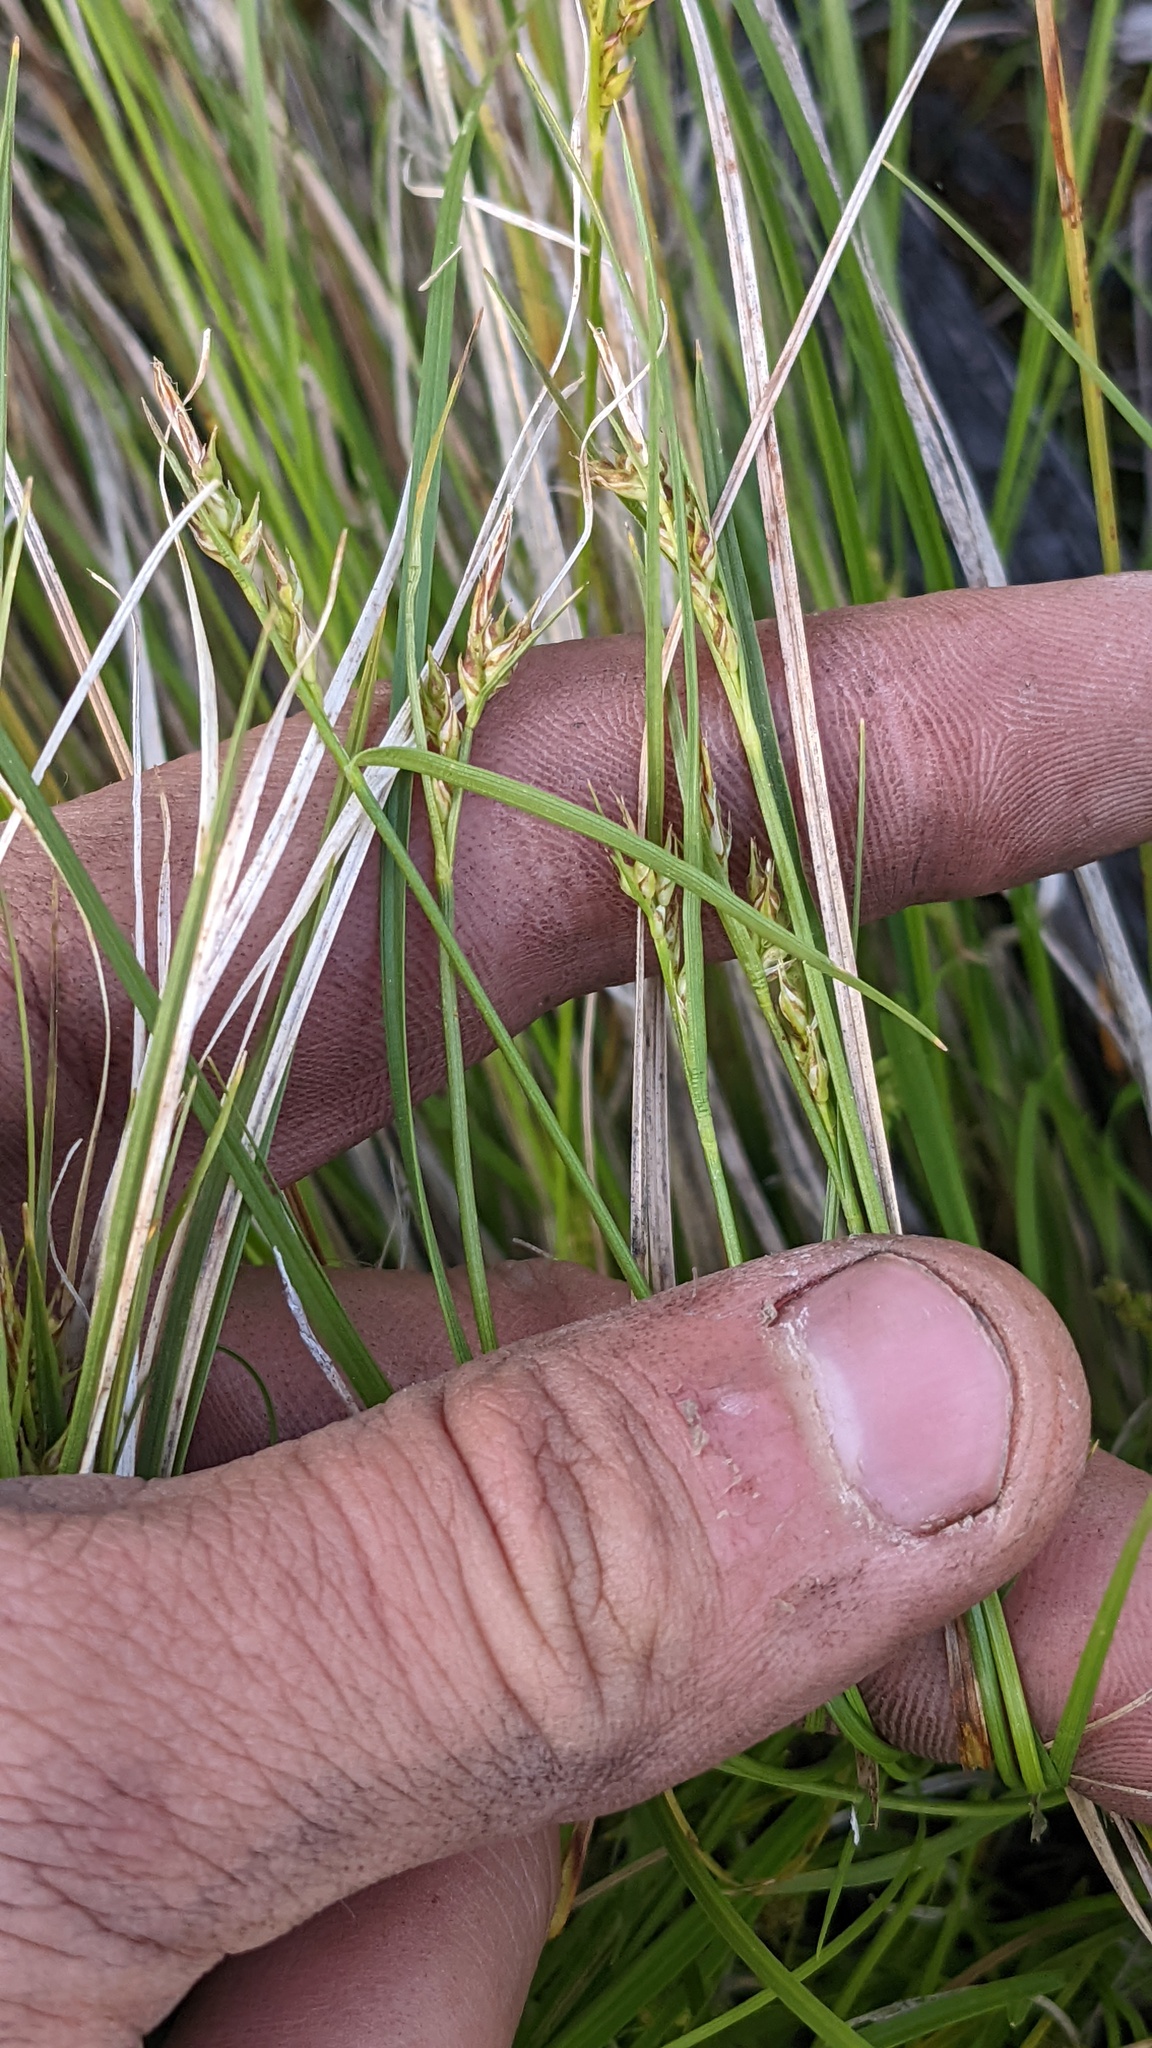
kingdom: Plantae
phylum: Tracheophyta
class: Liliopsida
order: Poales
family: Cyperaceae
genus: Carex
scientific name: Carex rossii
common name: Ross' sedge
